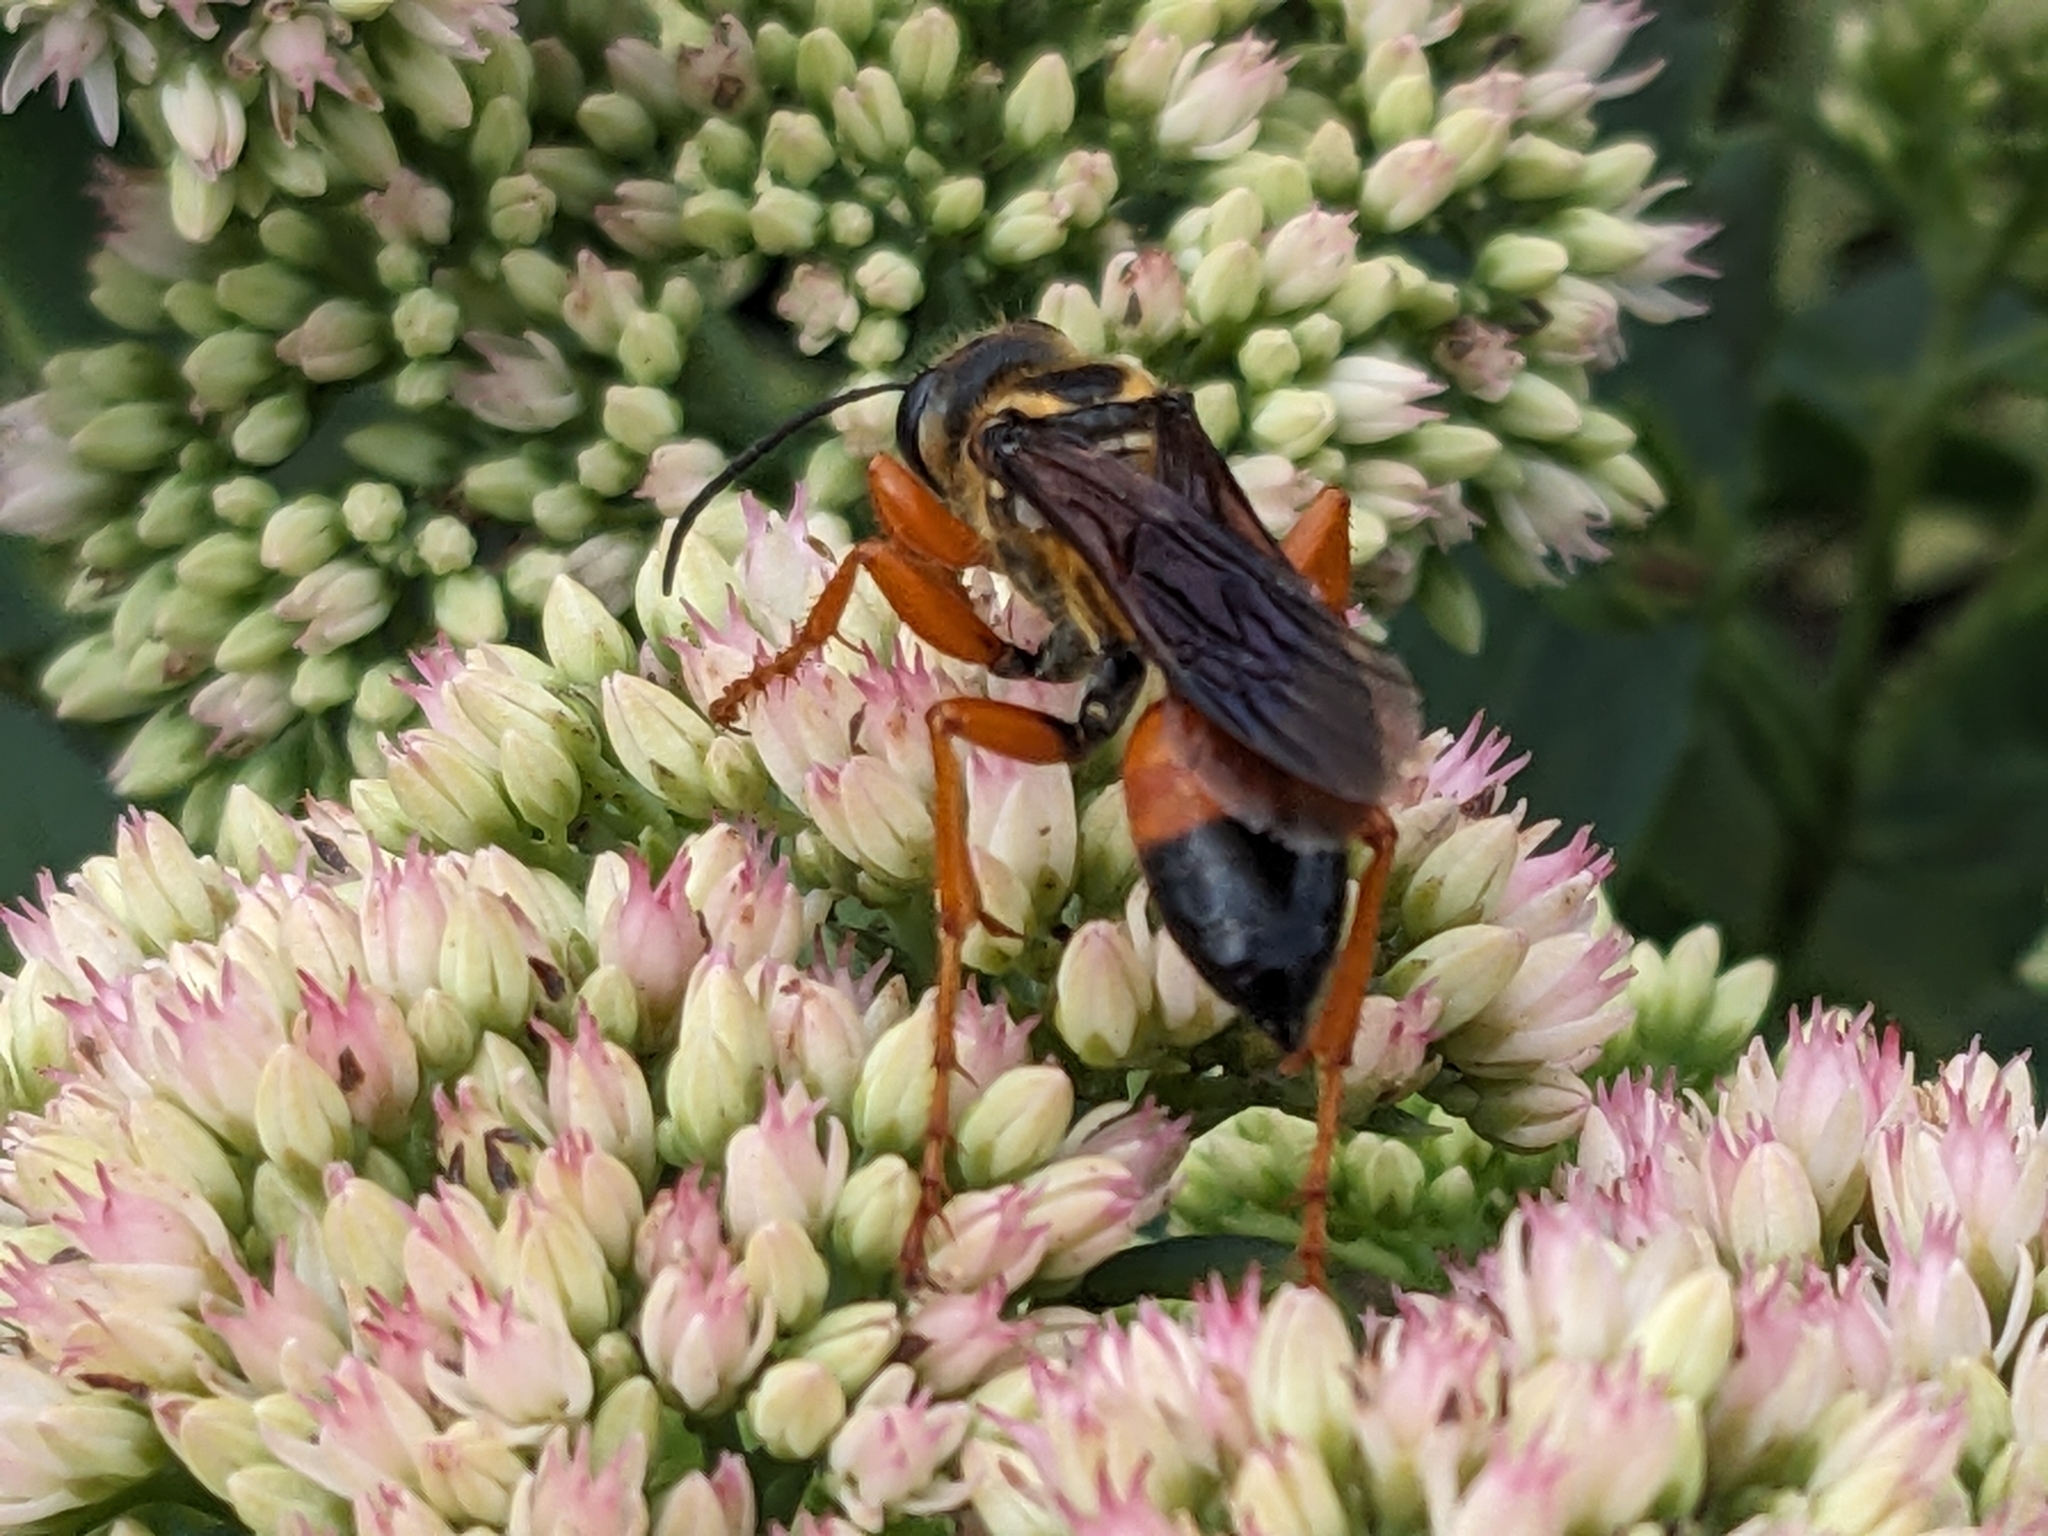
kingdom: Animalia
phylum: Arthropoda
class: Insecta
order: Hymenoptera
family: Sphecidae
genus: Sphex
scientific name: Sphex ichneumoneus
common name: Great golden digger wasp
